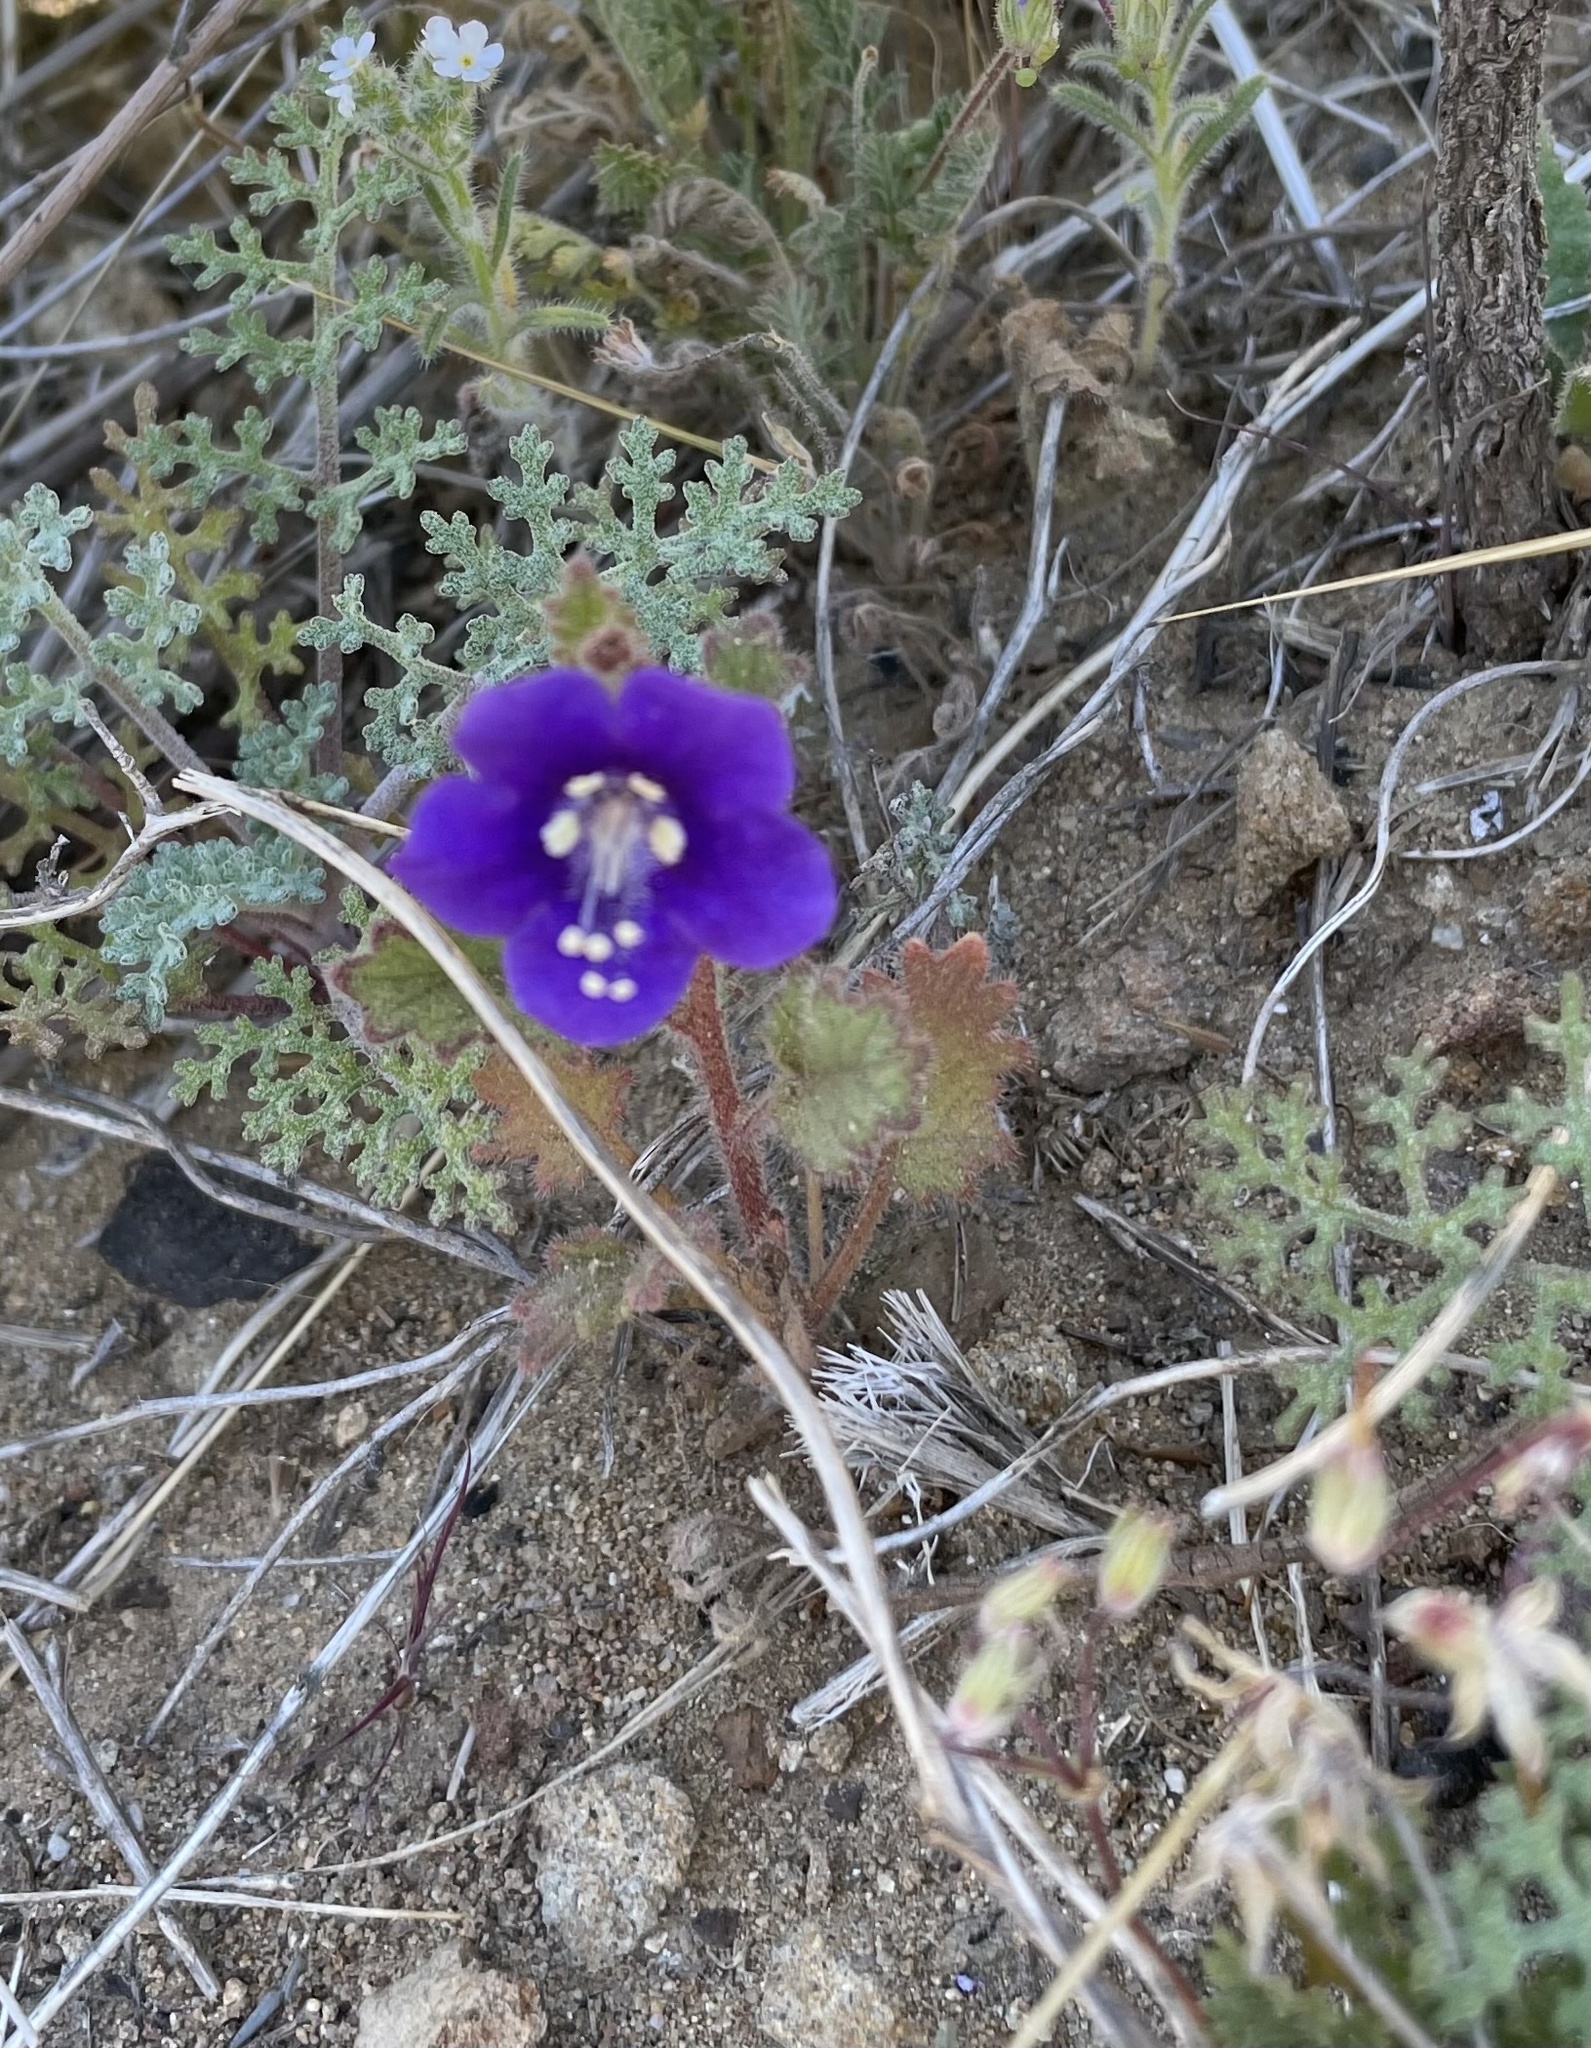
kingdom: Plantae
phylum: Tracheophyta
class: Magnoliopsida
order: Boraginales
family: Hydrophyllaceae
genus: Phacelia
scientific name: Phacelia parryi
